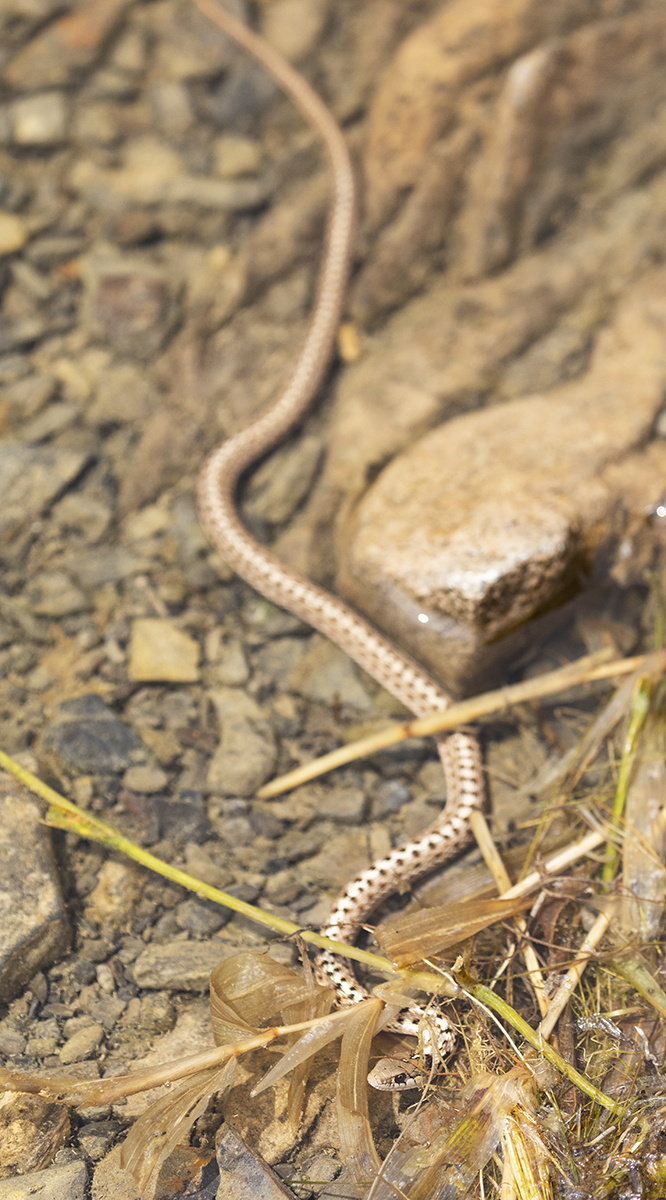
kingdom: Animalia
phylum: Chordata
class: Squamata
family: Colubridae
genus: Thamnophis
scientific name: Thamnophis elegans
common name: Western terrestrial garter snake
